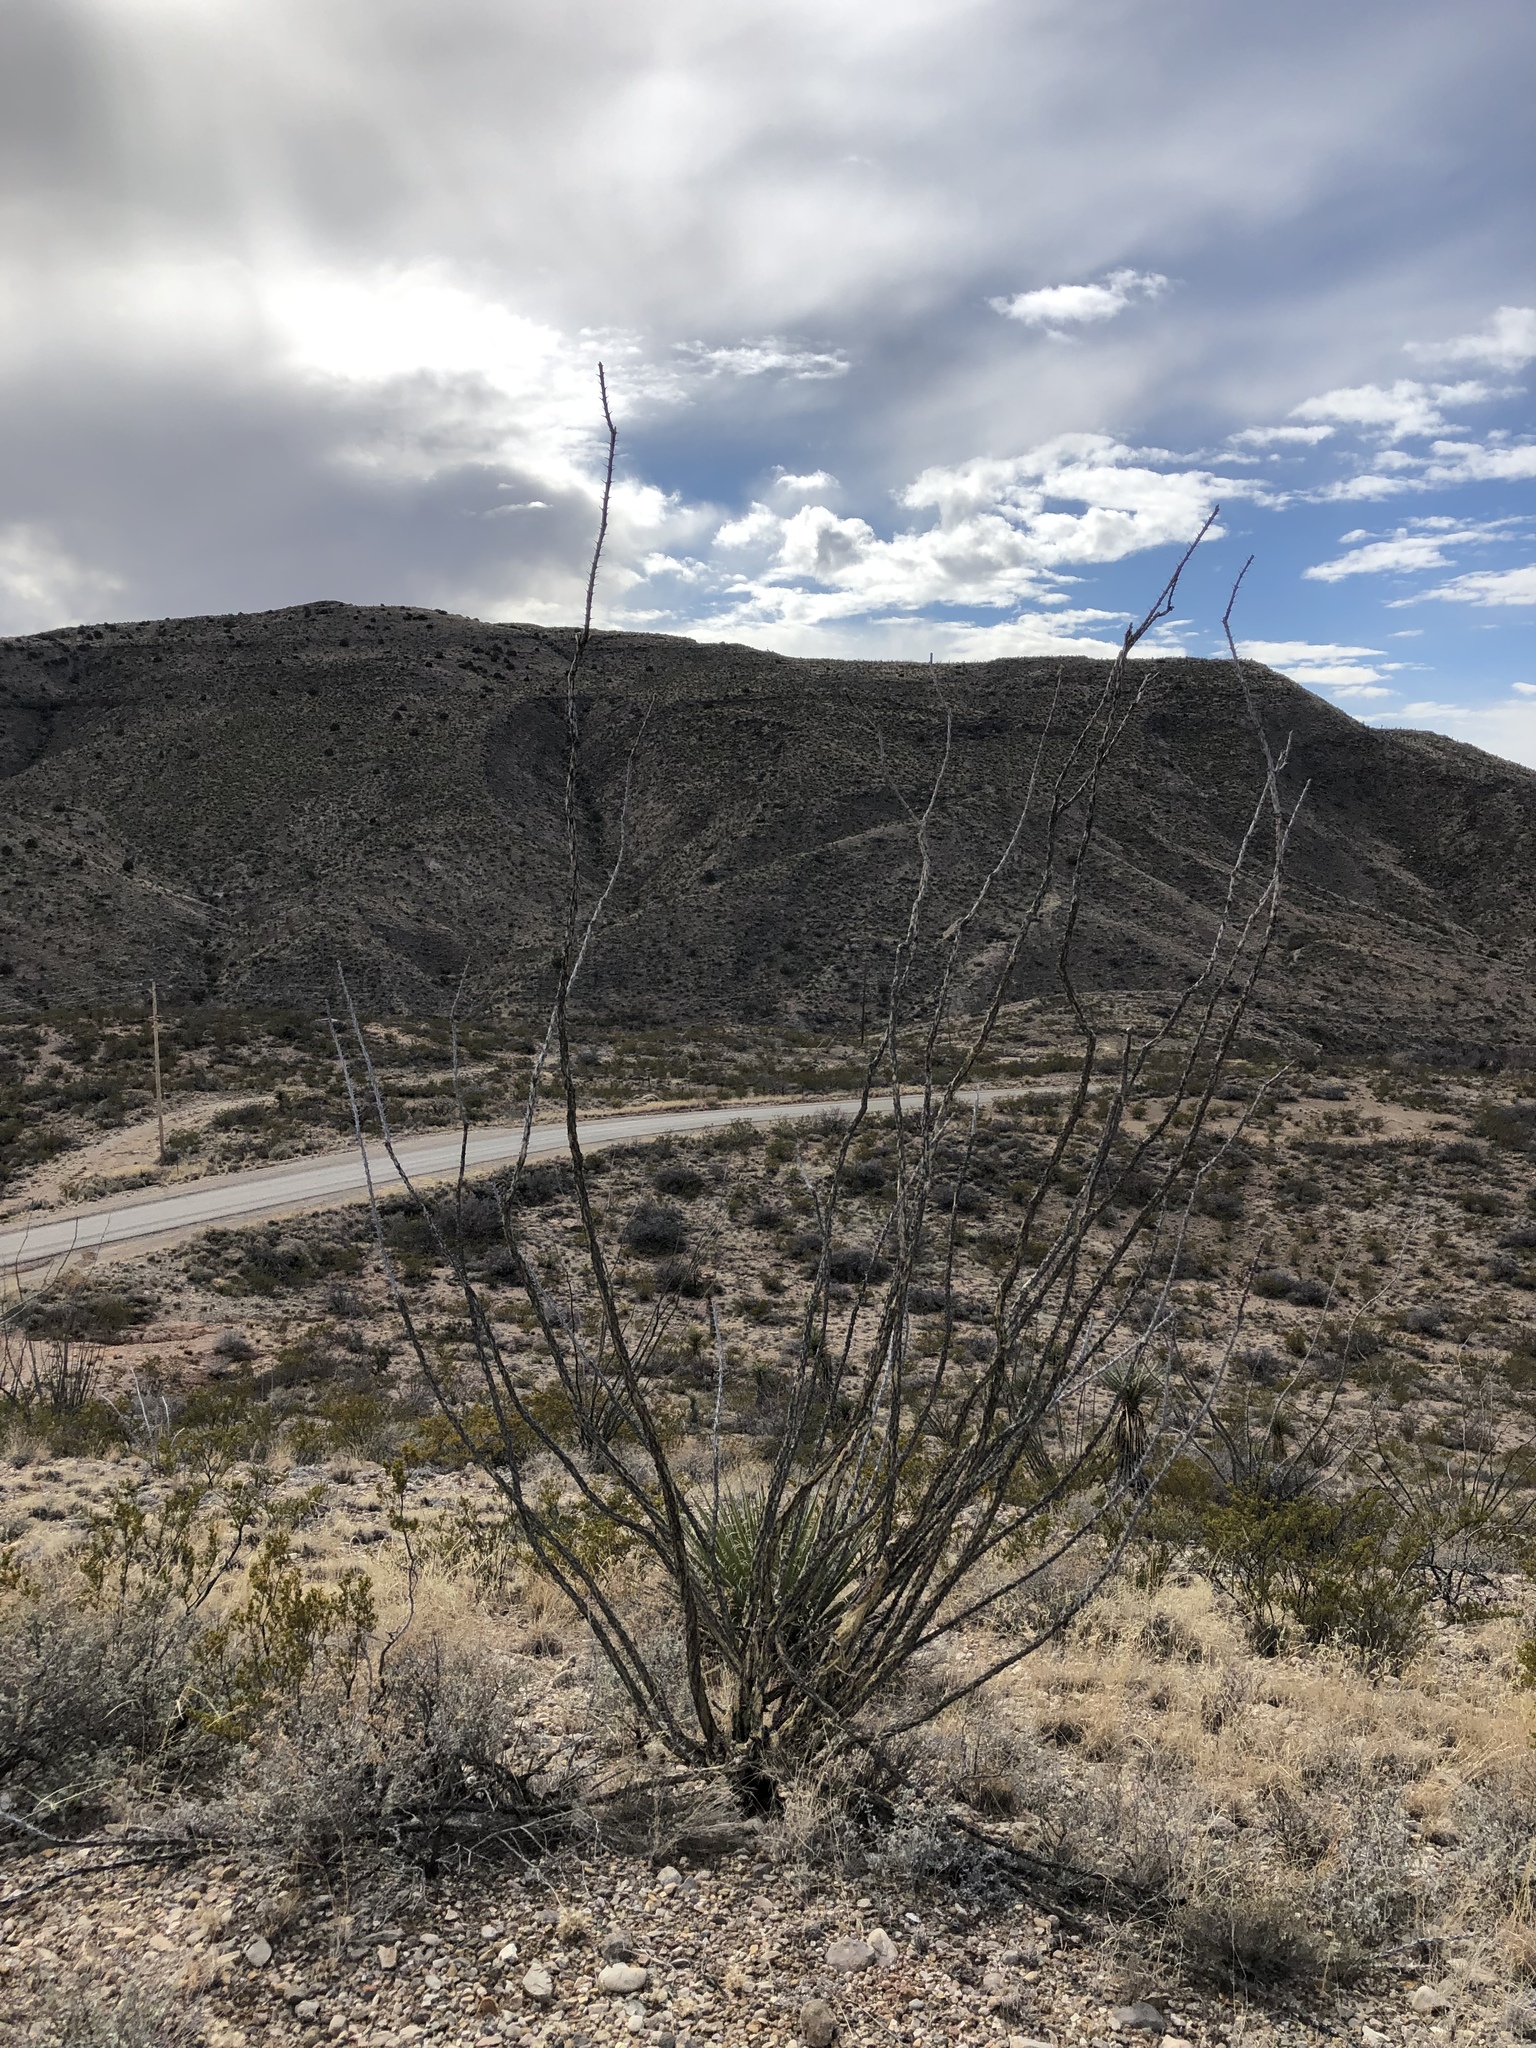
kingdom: Plantae
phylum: Tracheophyta
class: Magnoliopsida
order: Ericales
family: Fouquieriaceae
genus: Fouquieria
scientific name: Fouquieria splendens
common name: Vine-cactus
